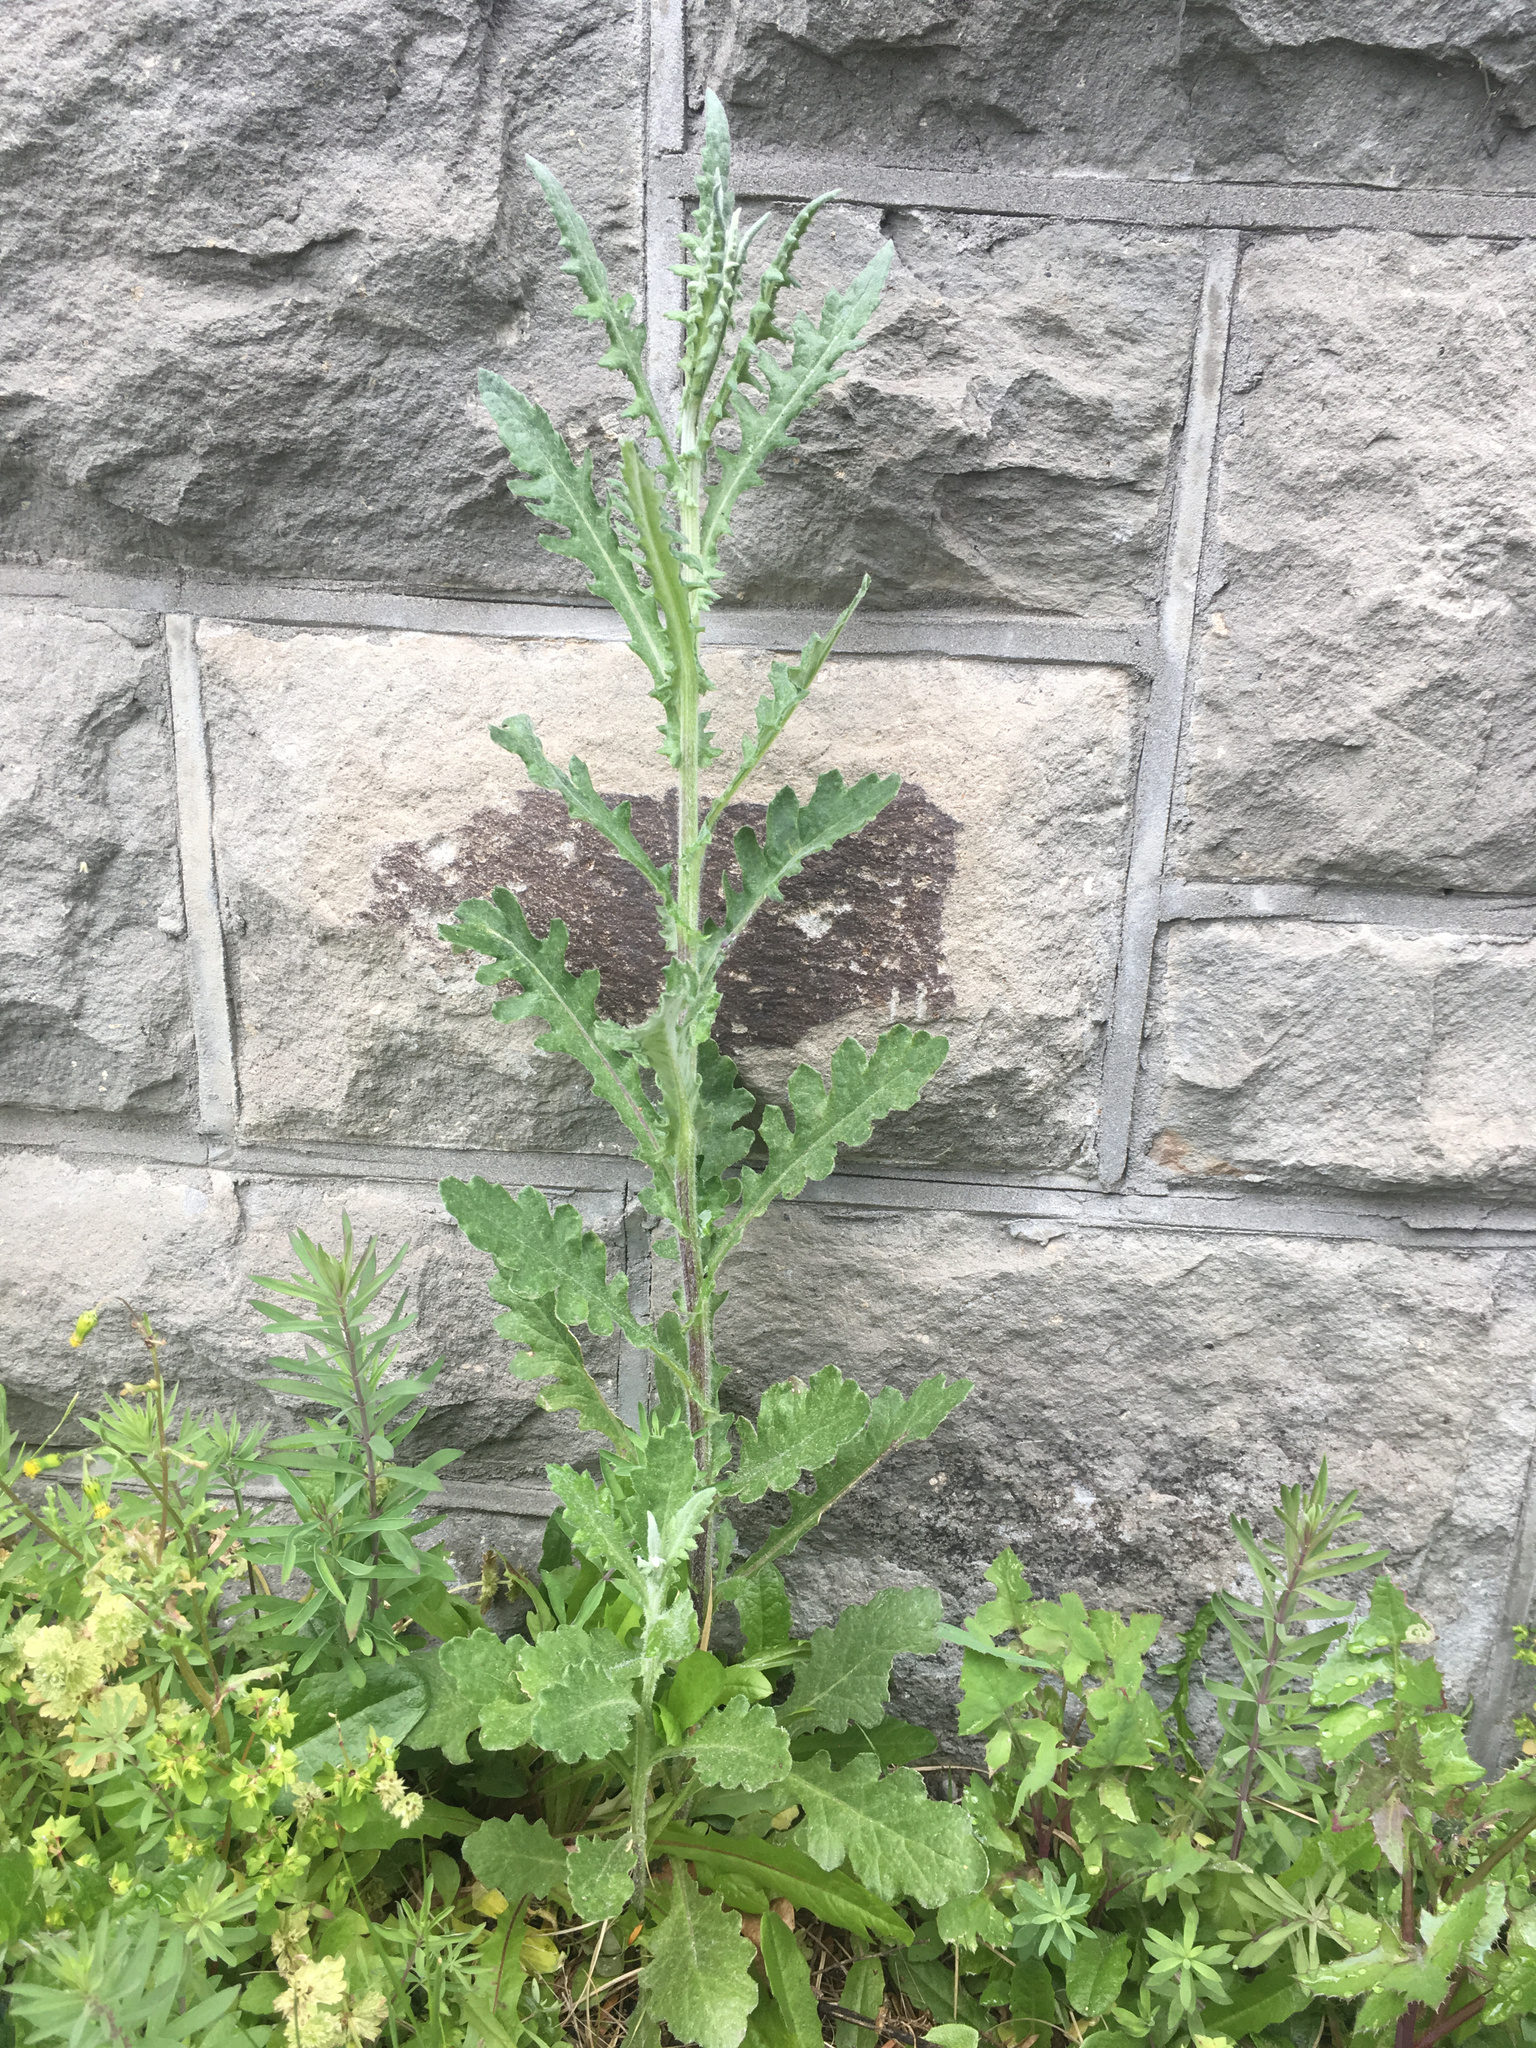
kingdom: Plantae
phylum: Tracheophyta
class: Magnoliopsida
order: Asterales
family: Asteraceae
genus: Senecio
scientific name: Senecio glomeratus
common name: Cutleaf burnweed
